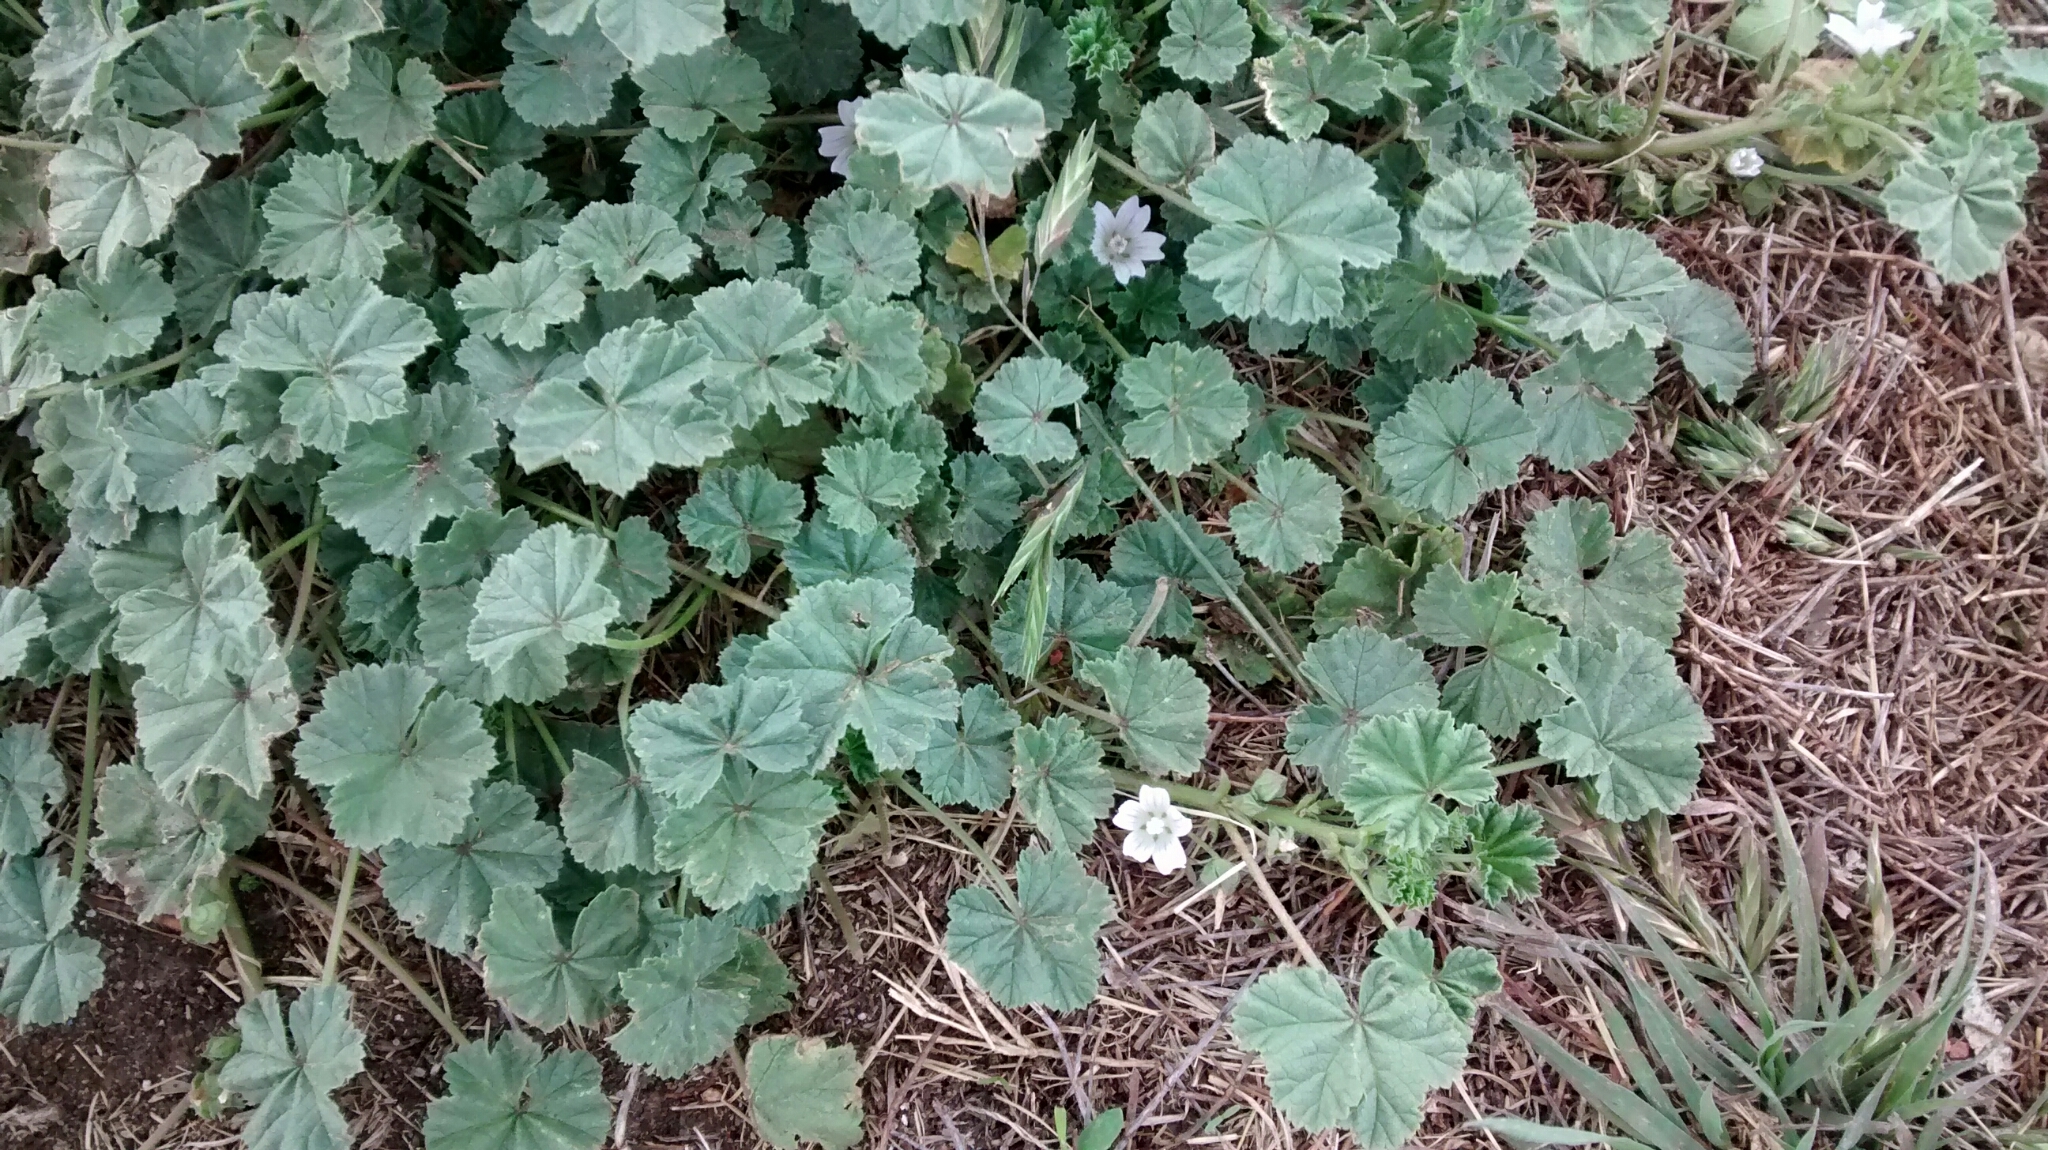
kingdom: Plantae
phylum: Tracheophyta
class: Magnoliopsida
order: Malvales
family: Malvaceae
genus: Malva
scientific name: Malva neglecta
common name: Common mallow
